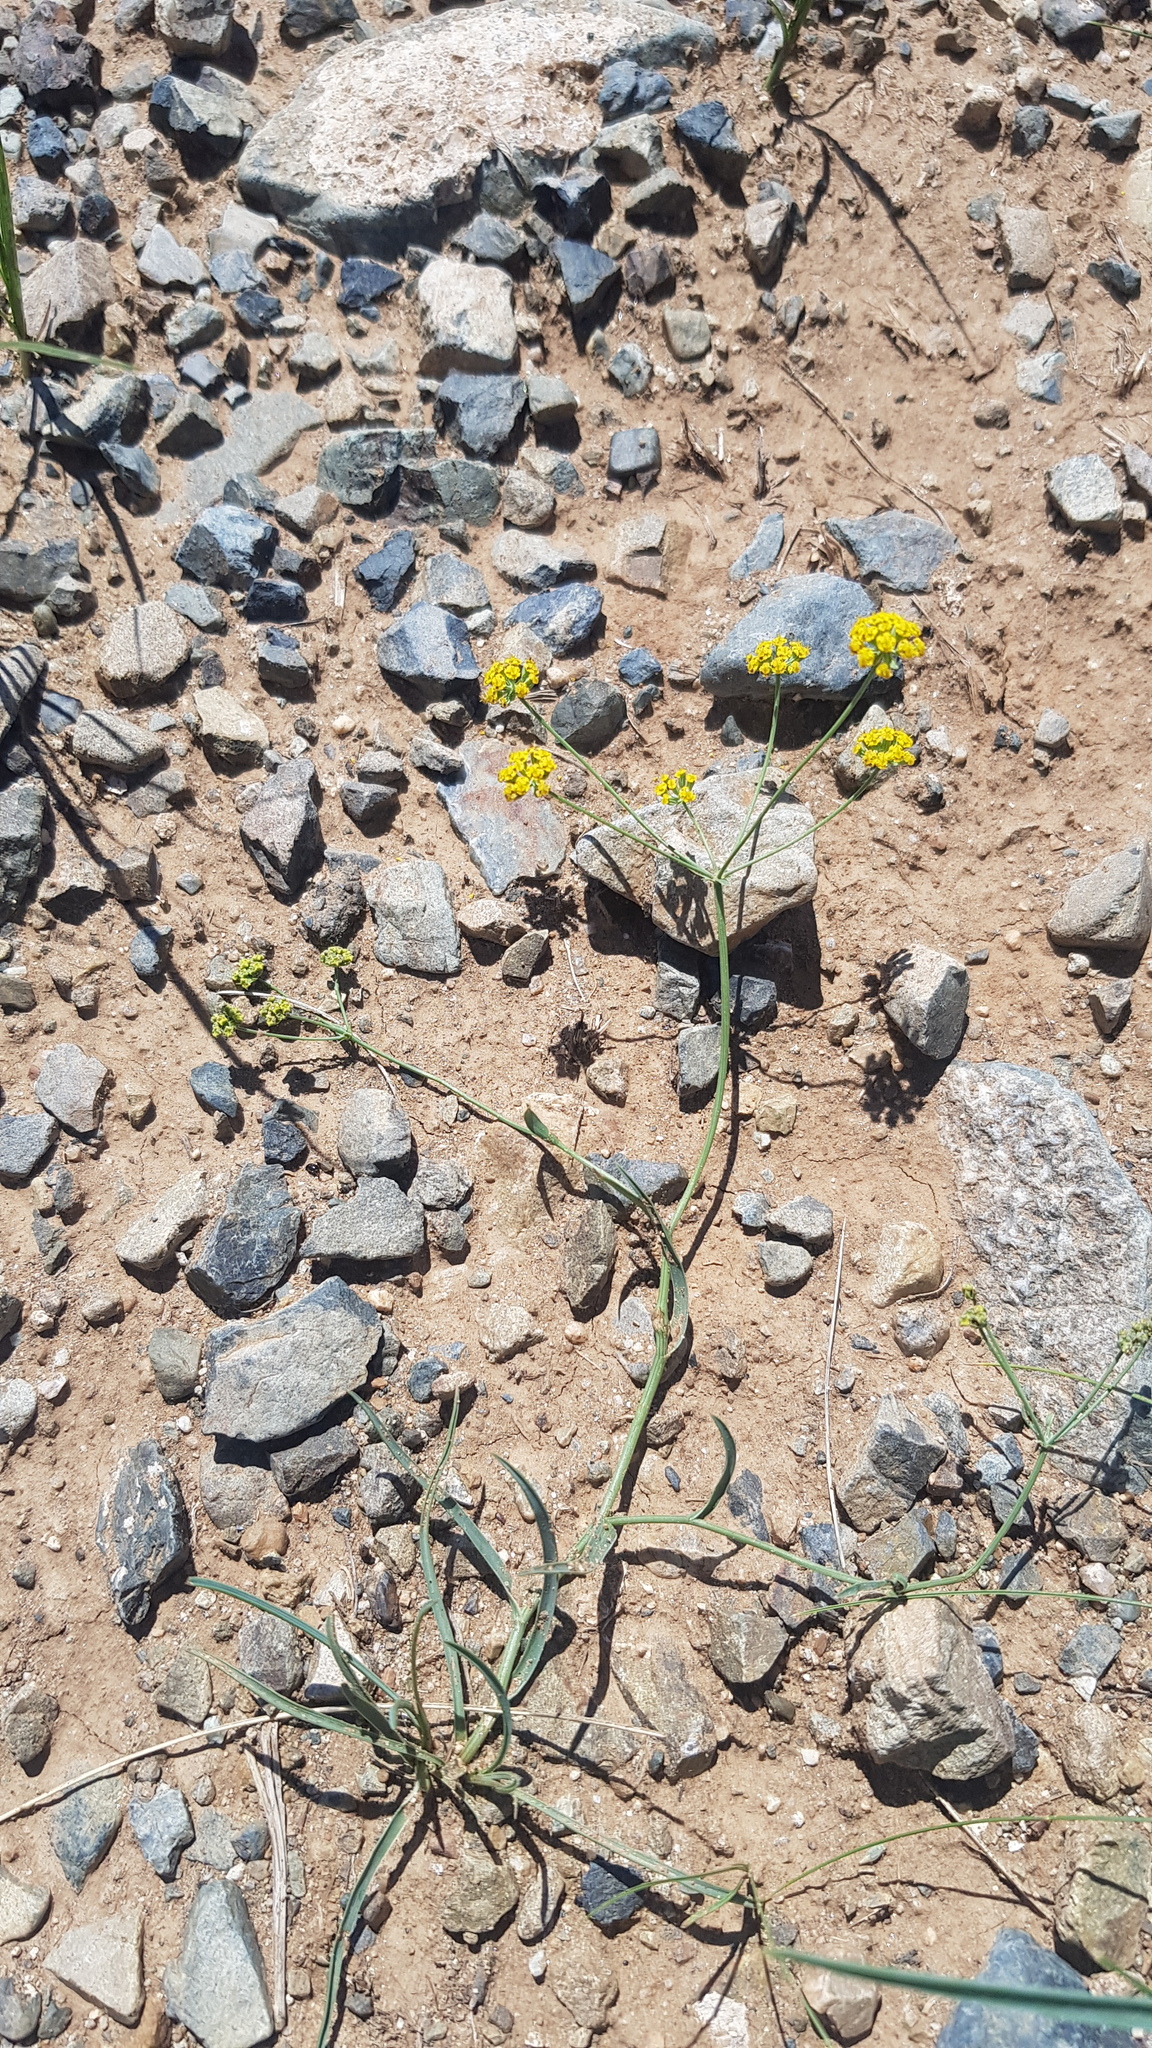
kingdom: Plantae
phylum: Tracheophyta
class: Magnoliopsida
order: Apiales
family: Apiaceae
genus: Bupleurum
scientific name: Bupleurum bicaule
